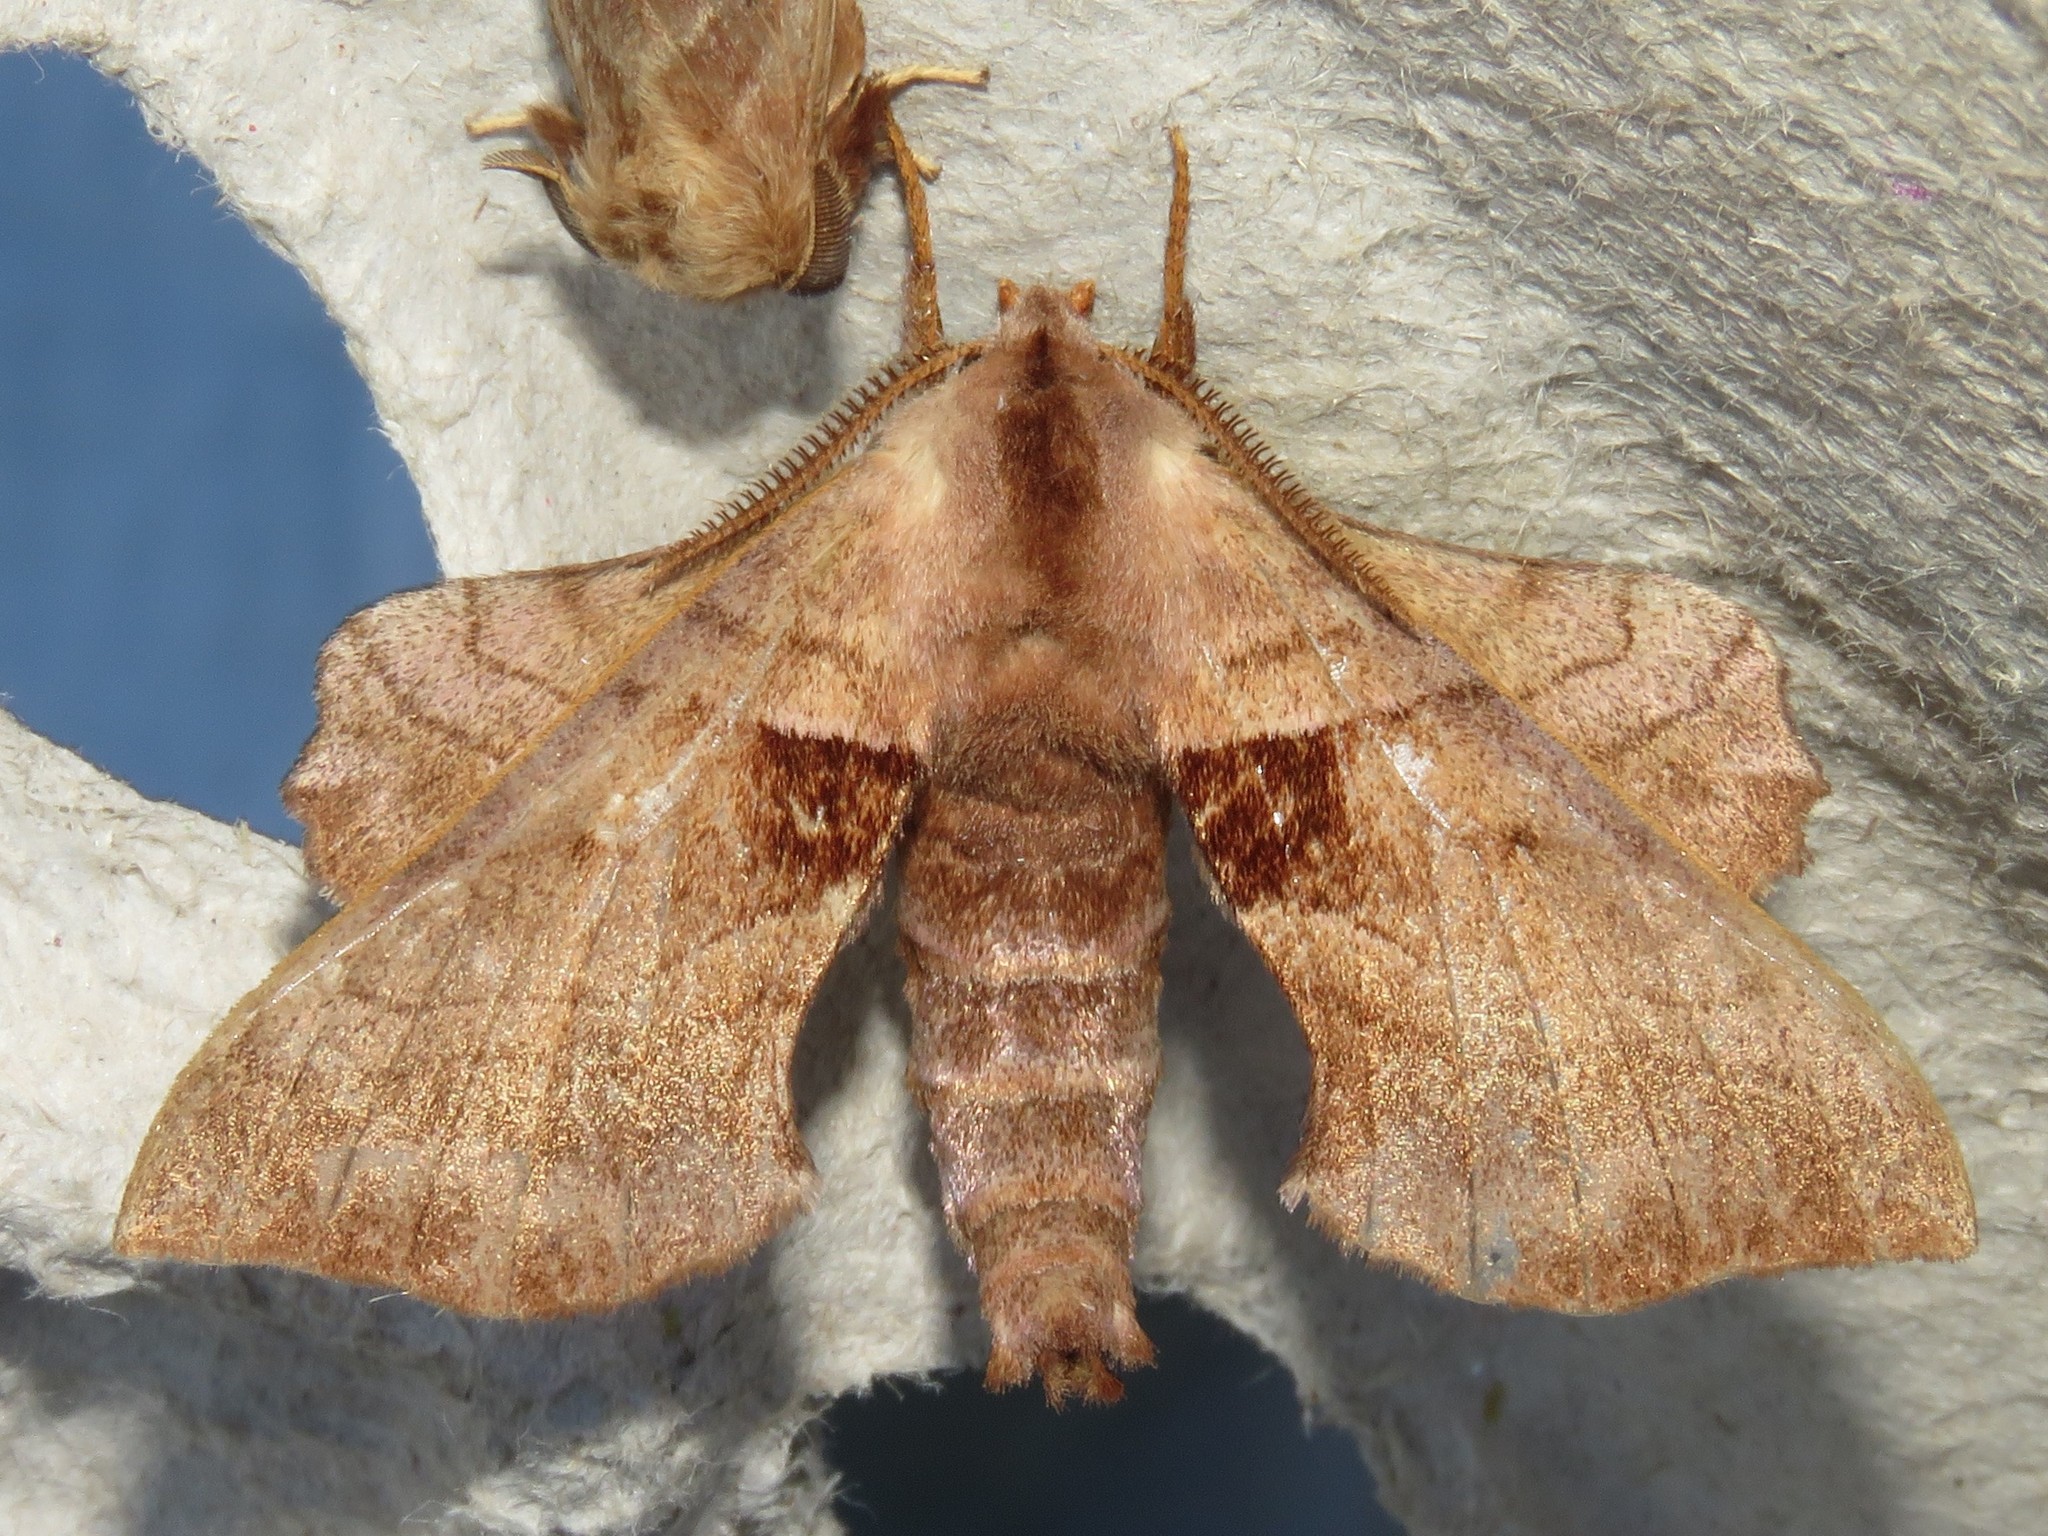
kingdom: Animalia
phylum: Arthropoda
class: Insecta
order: Lepidoptera
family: Sphingidae
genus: Amorpha
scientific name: Amorpha juglandis
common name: Walnut sphinx
